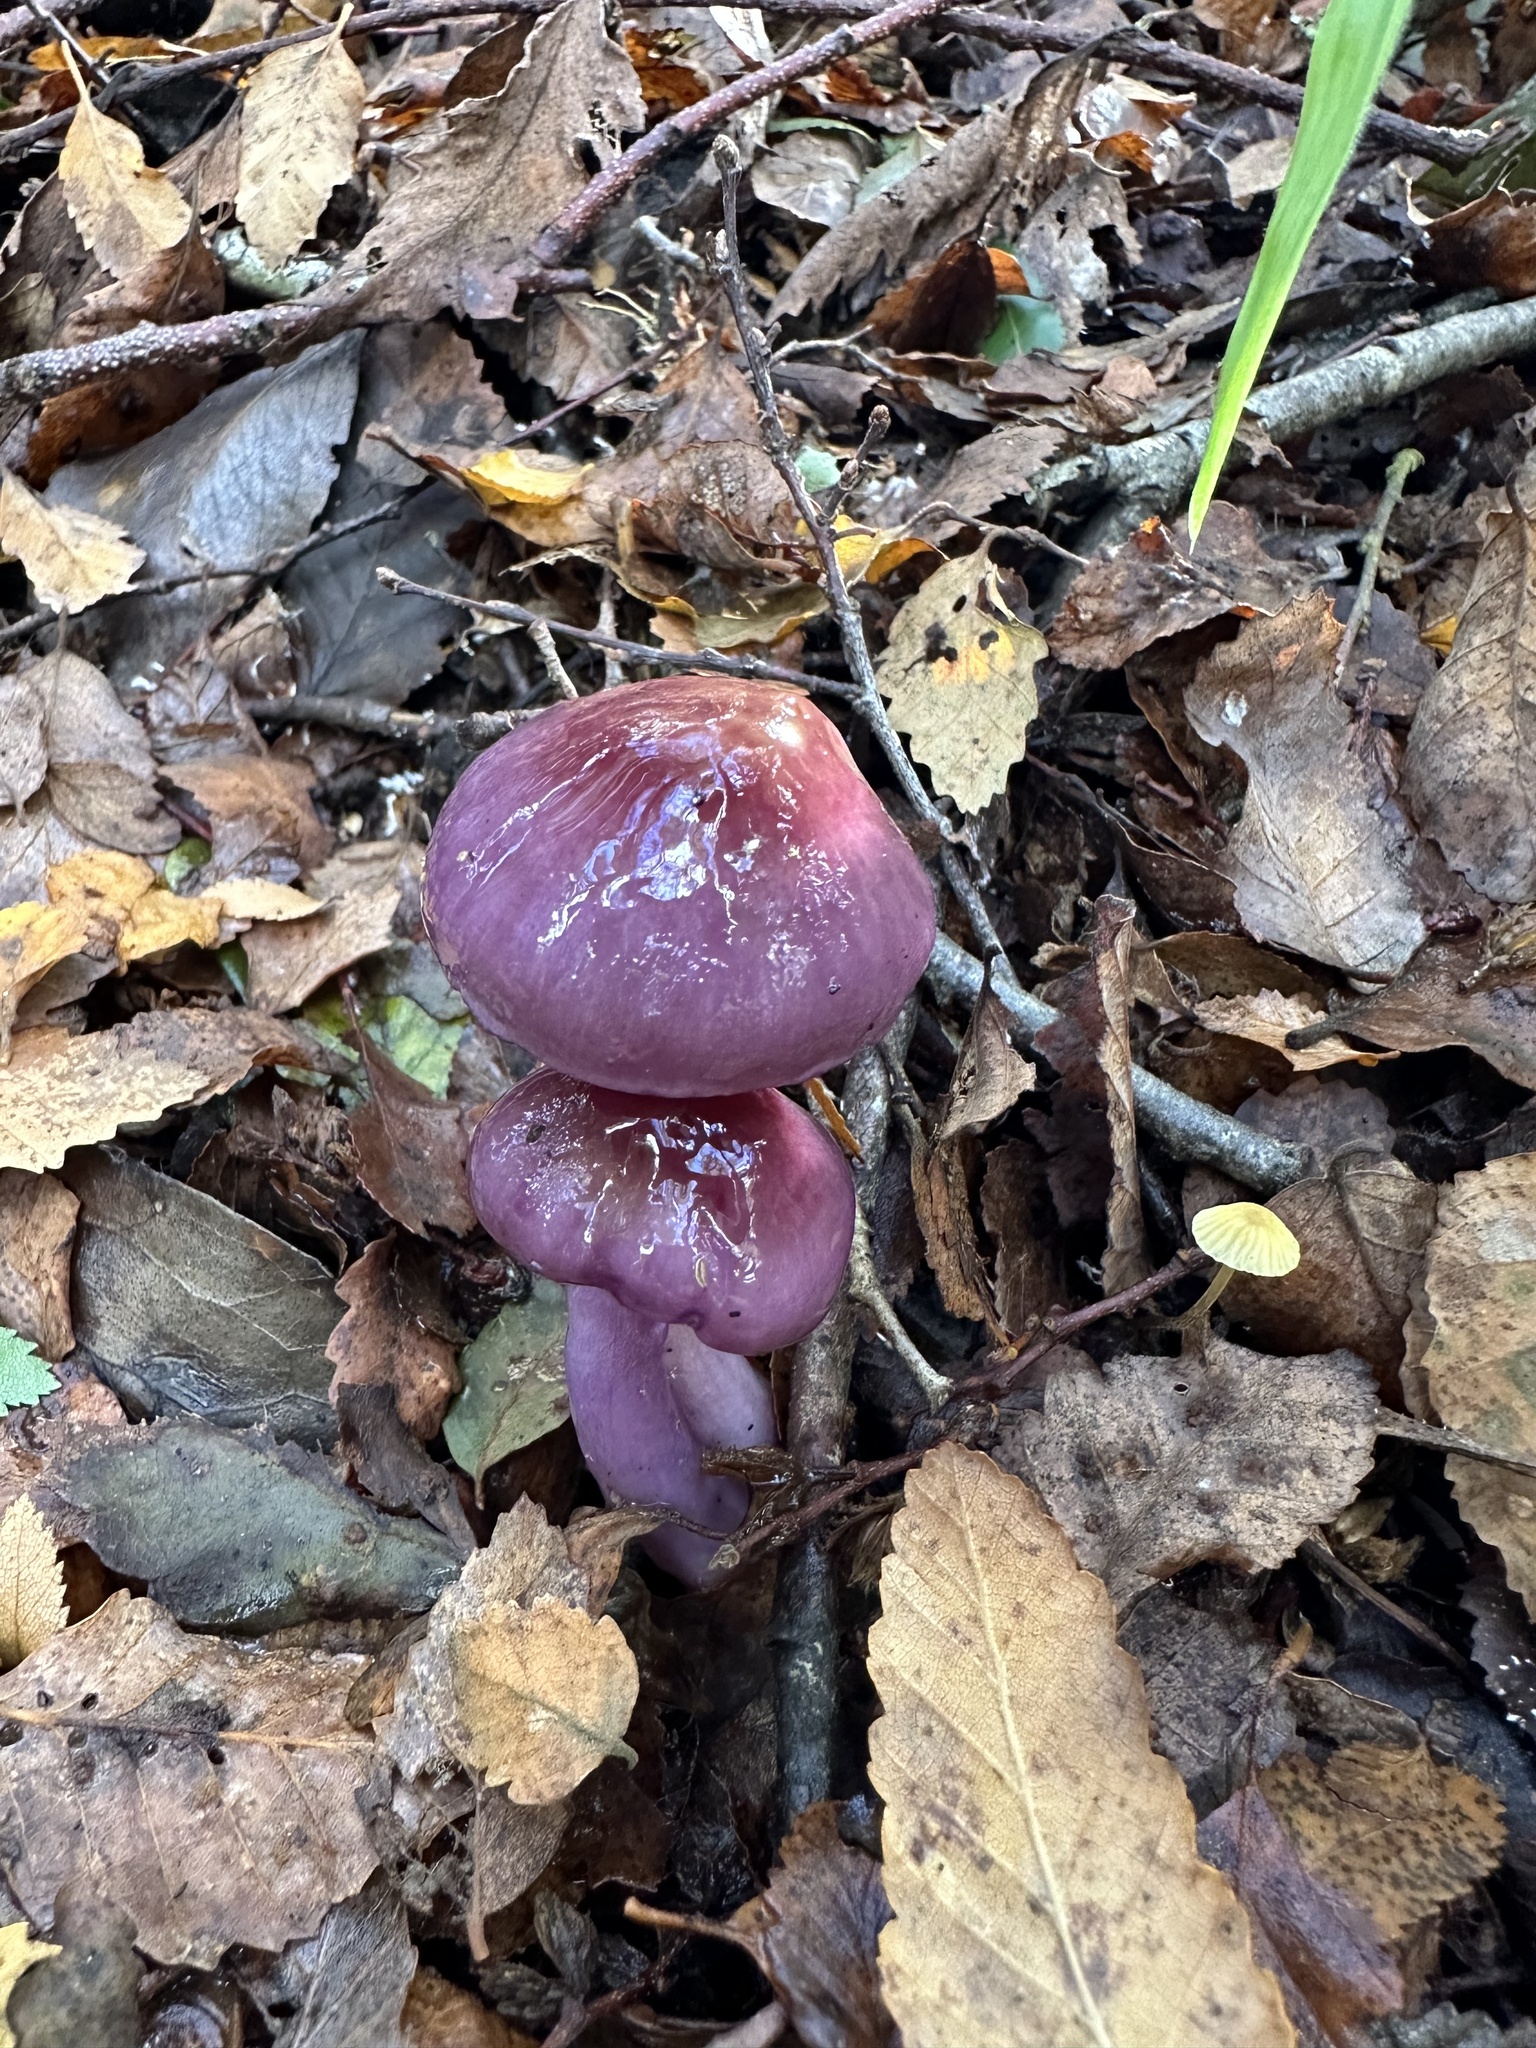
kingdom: Fungi
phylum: Basidiomycota
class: Agaricomycetes
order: Agaricales
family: Cortinariaceae
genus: Cortinarius
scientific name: Cortinarius magellanicus
